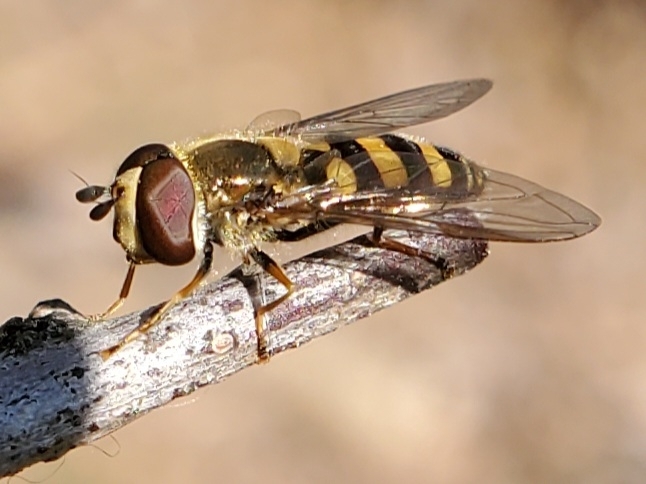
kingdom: Animalia
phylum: Arthropoda
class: Insecta
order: Diptera
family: Syrphidae
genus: Eupeodes
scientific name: Eupeodes
